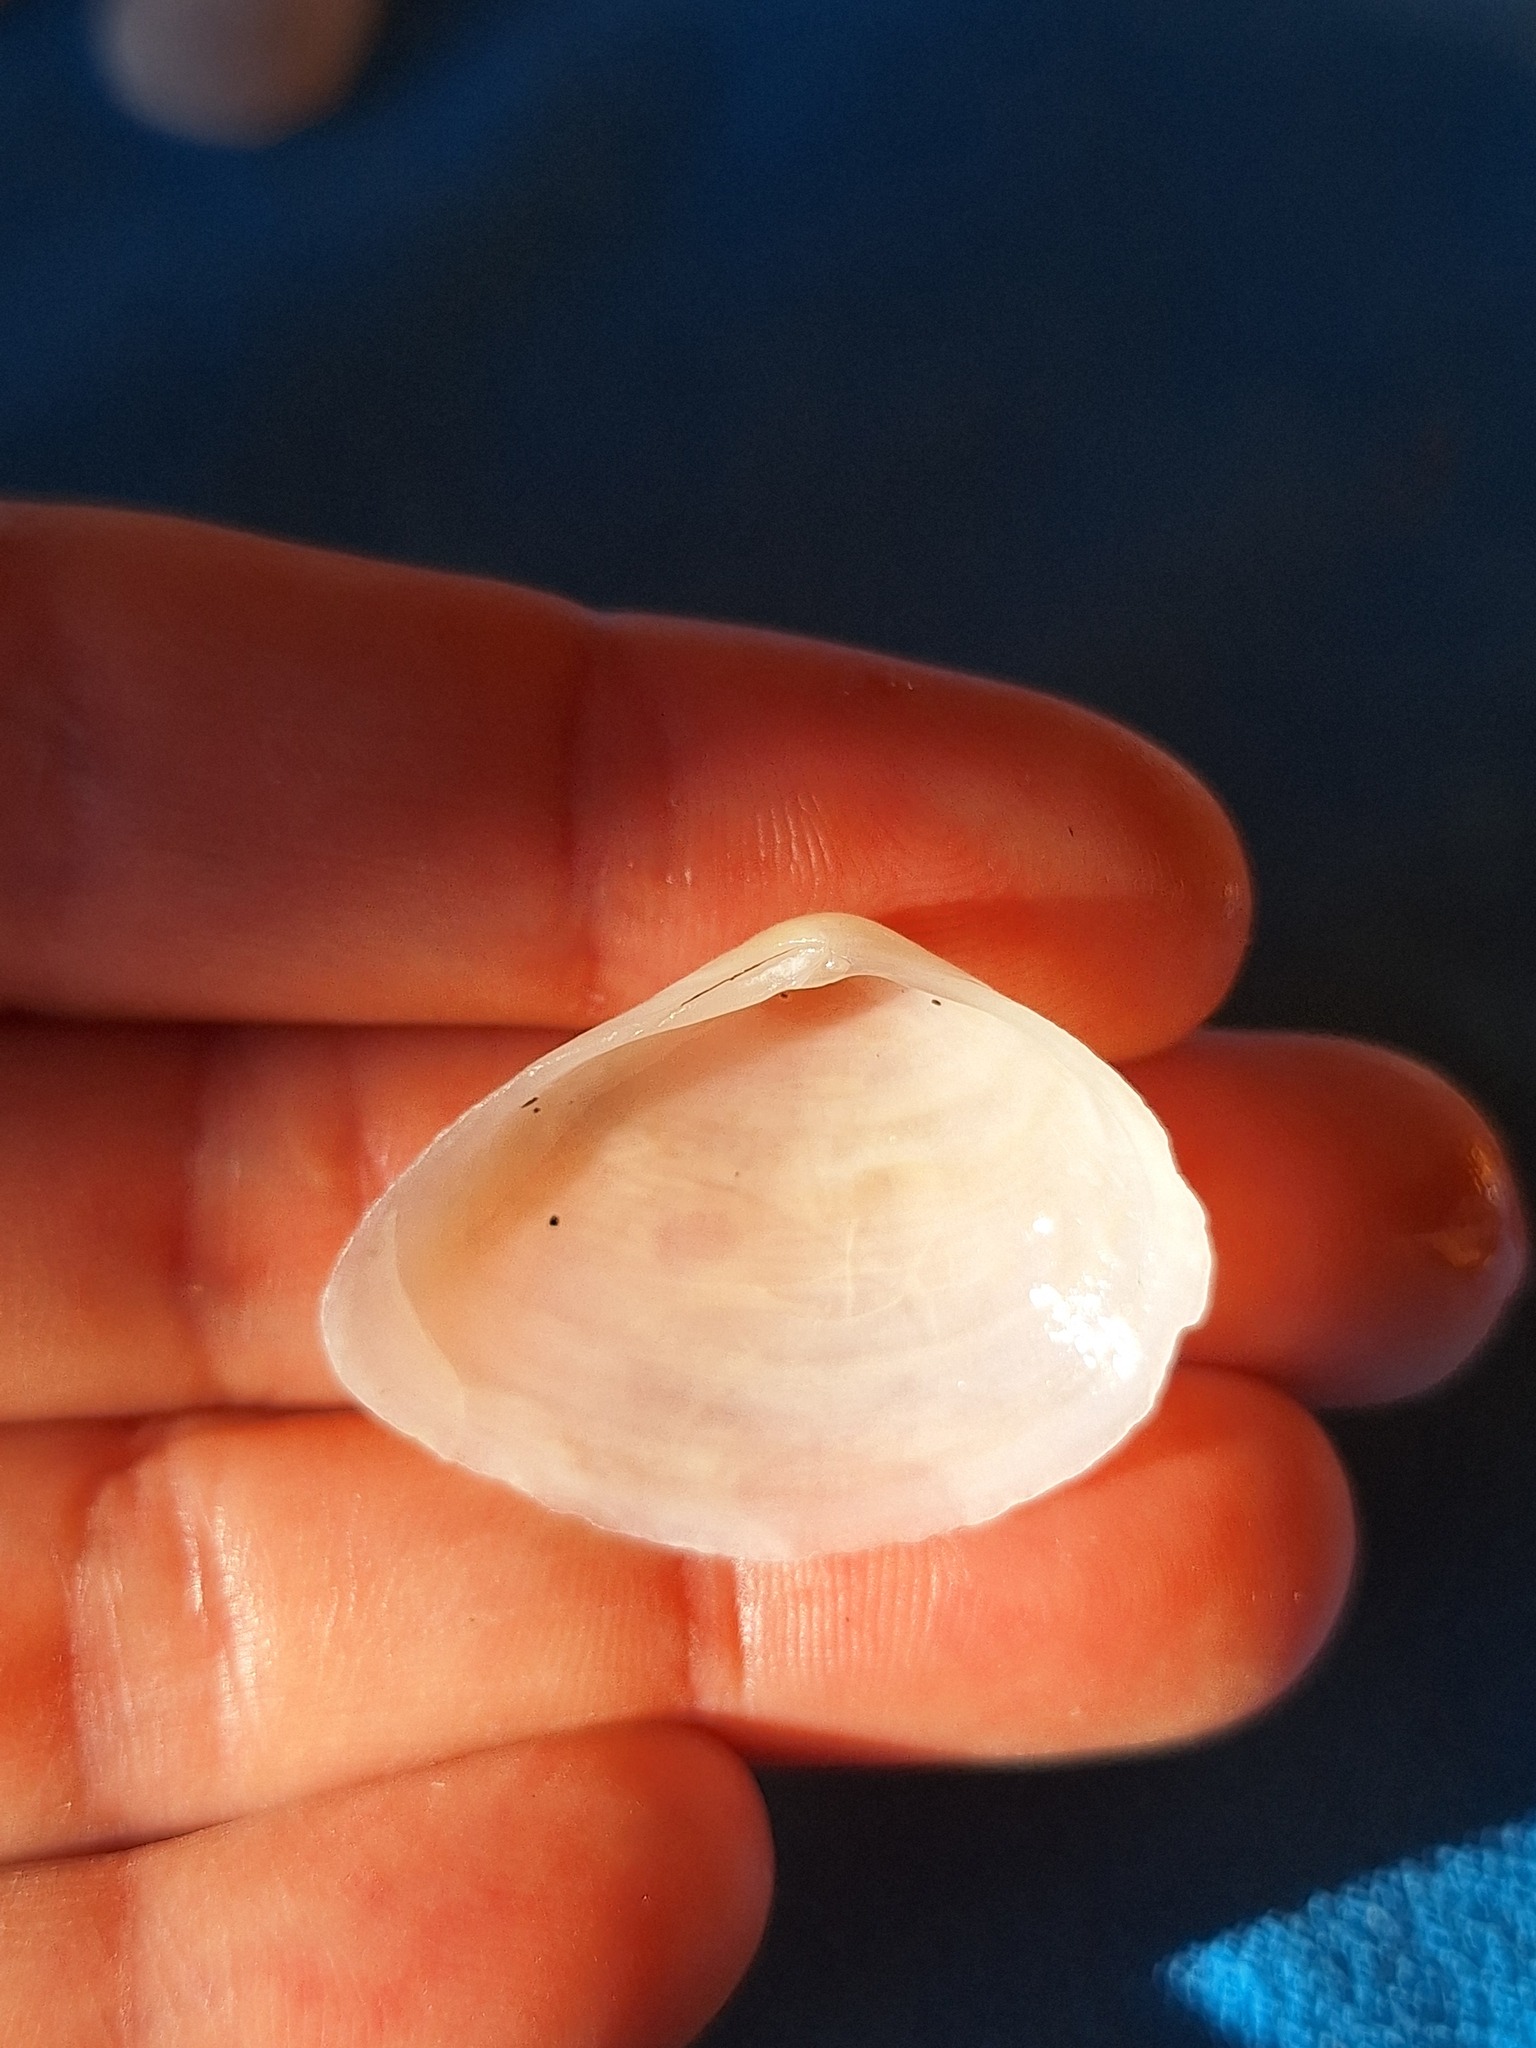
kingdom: Animalia
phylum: Mollusca
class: Bivalvia
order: Cardiida
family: Tellinidae
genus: Gastrana
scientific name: Gastrana fragilis
